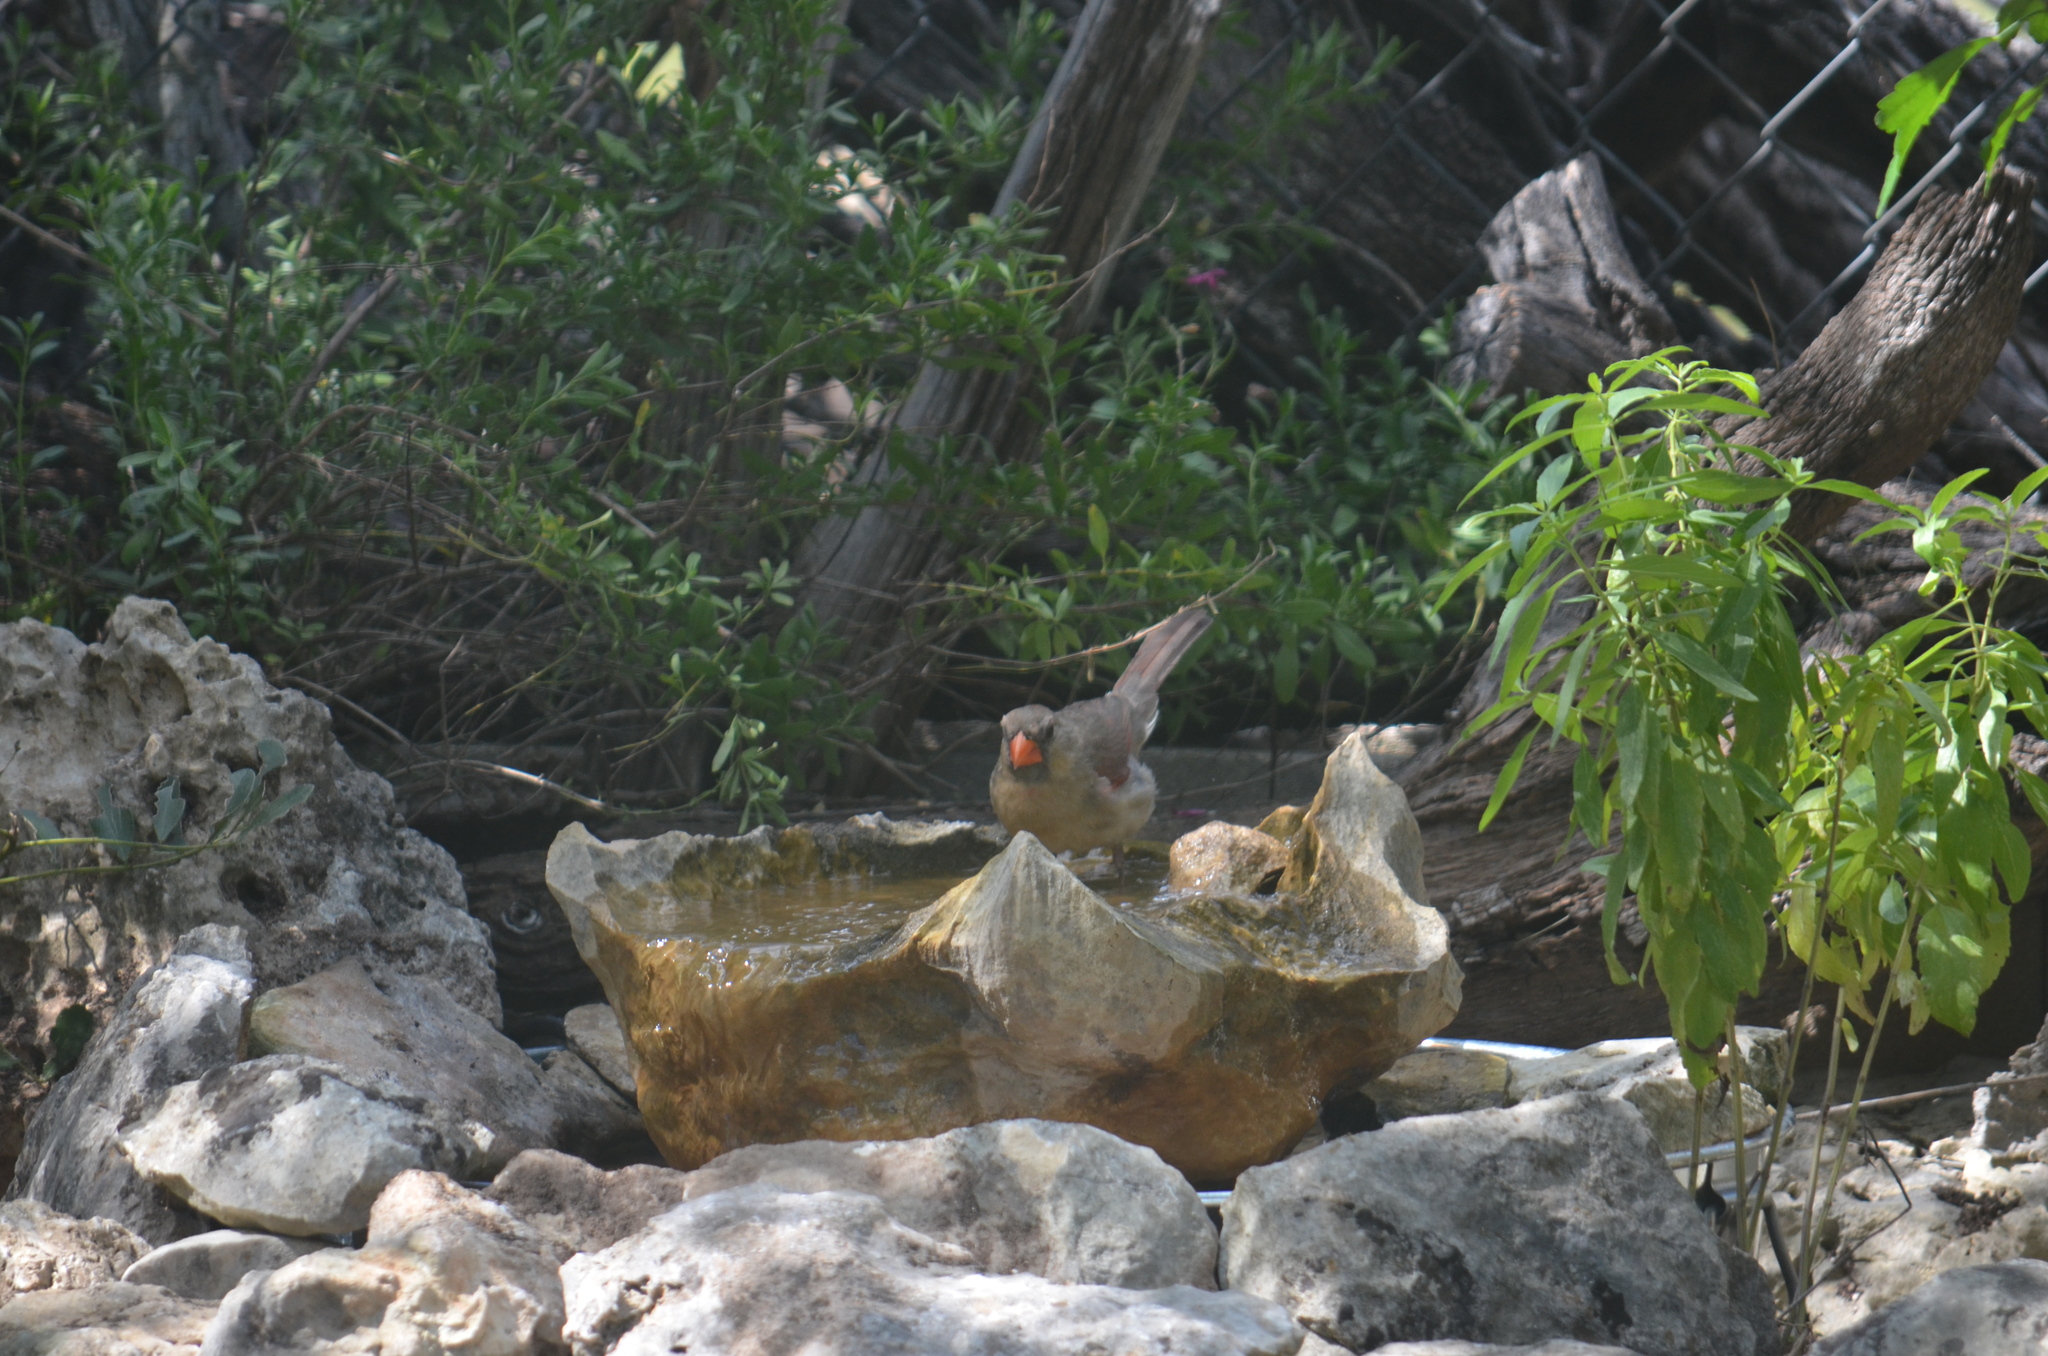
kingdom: Animalia
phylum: Chordata
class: Aves
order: Passeriformes
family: Cardinalidae
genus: Cardinalis
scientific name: Cardinalis cardinalis
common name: Northern cardinal
